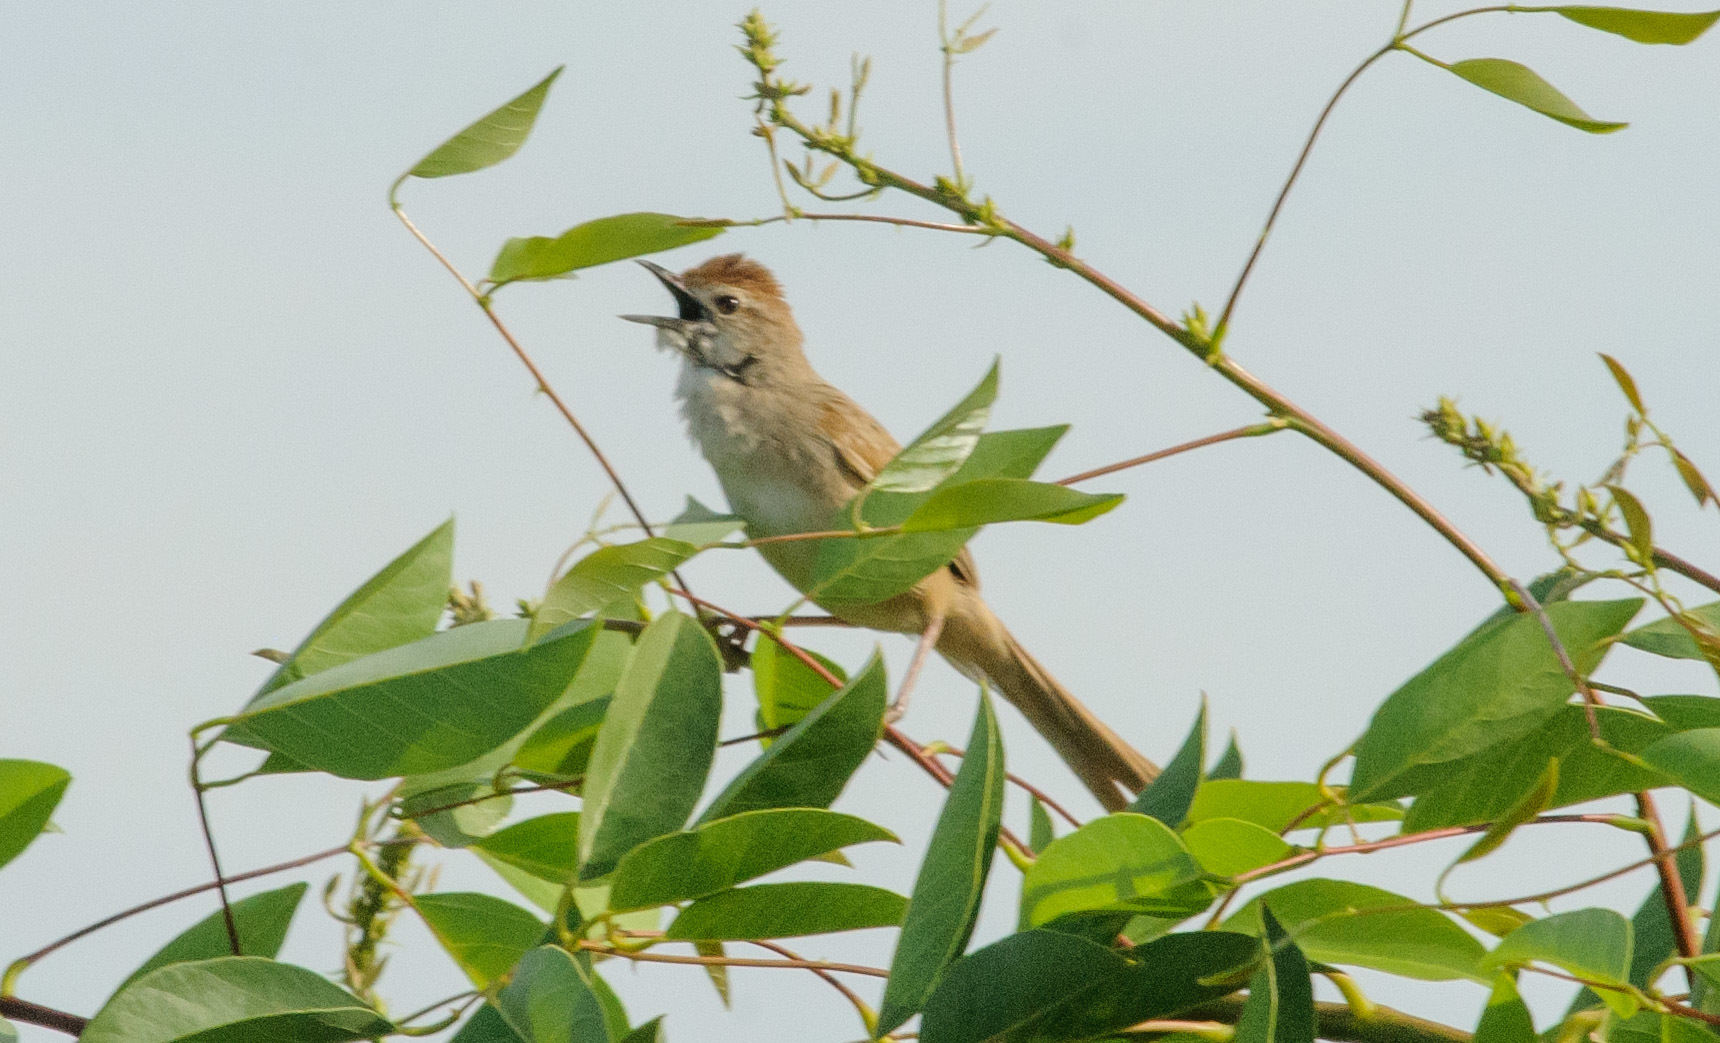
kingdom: Animalia
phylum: Chordata
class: Aves
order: Passeriformes
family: Cisticolidae
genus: Cisticola
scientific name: Cisticola exilis
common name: Golden-headed cisticola
